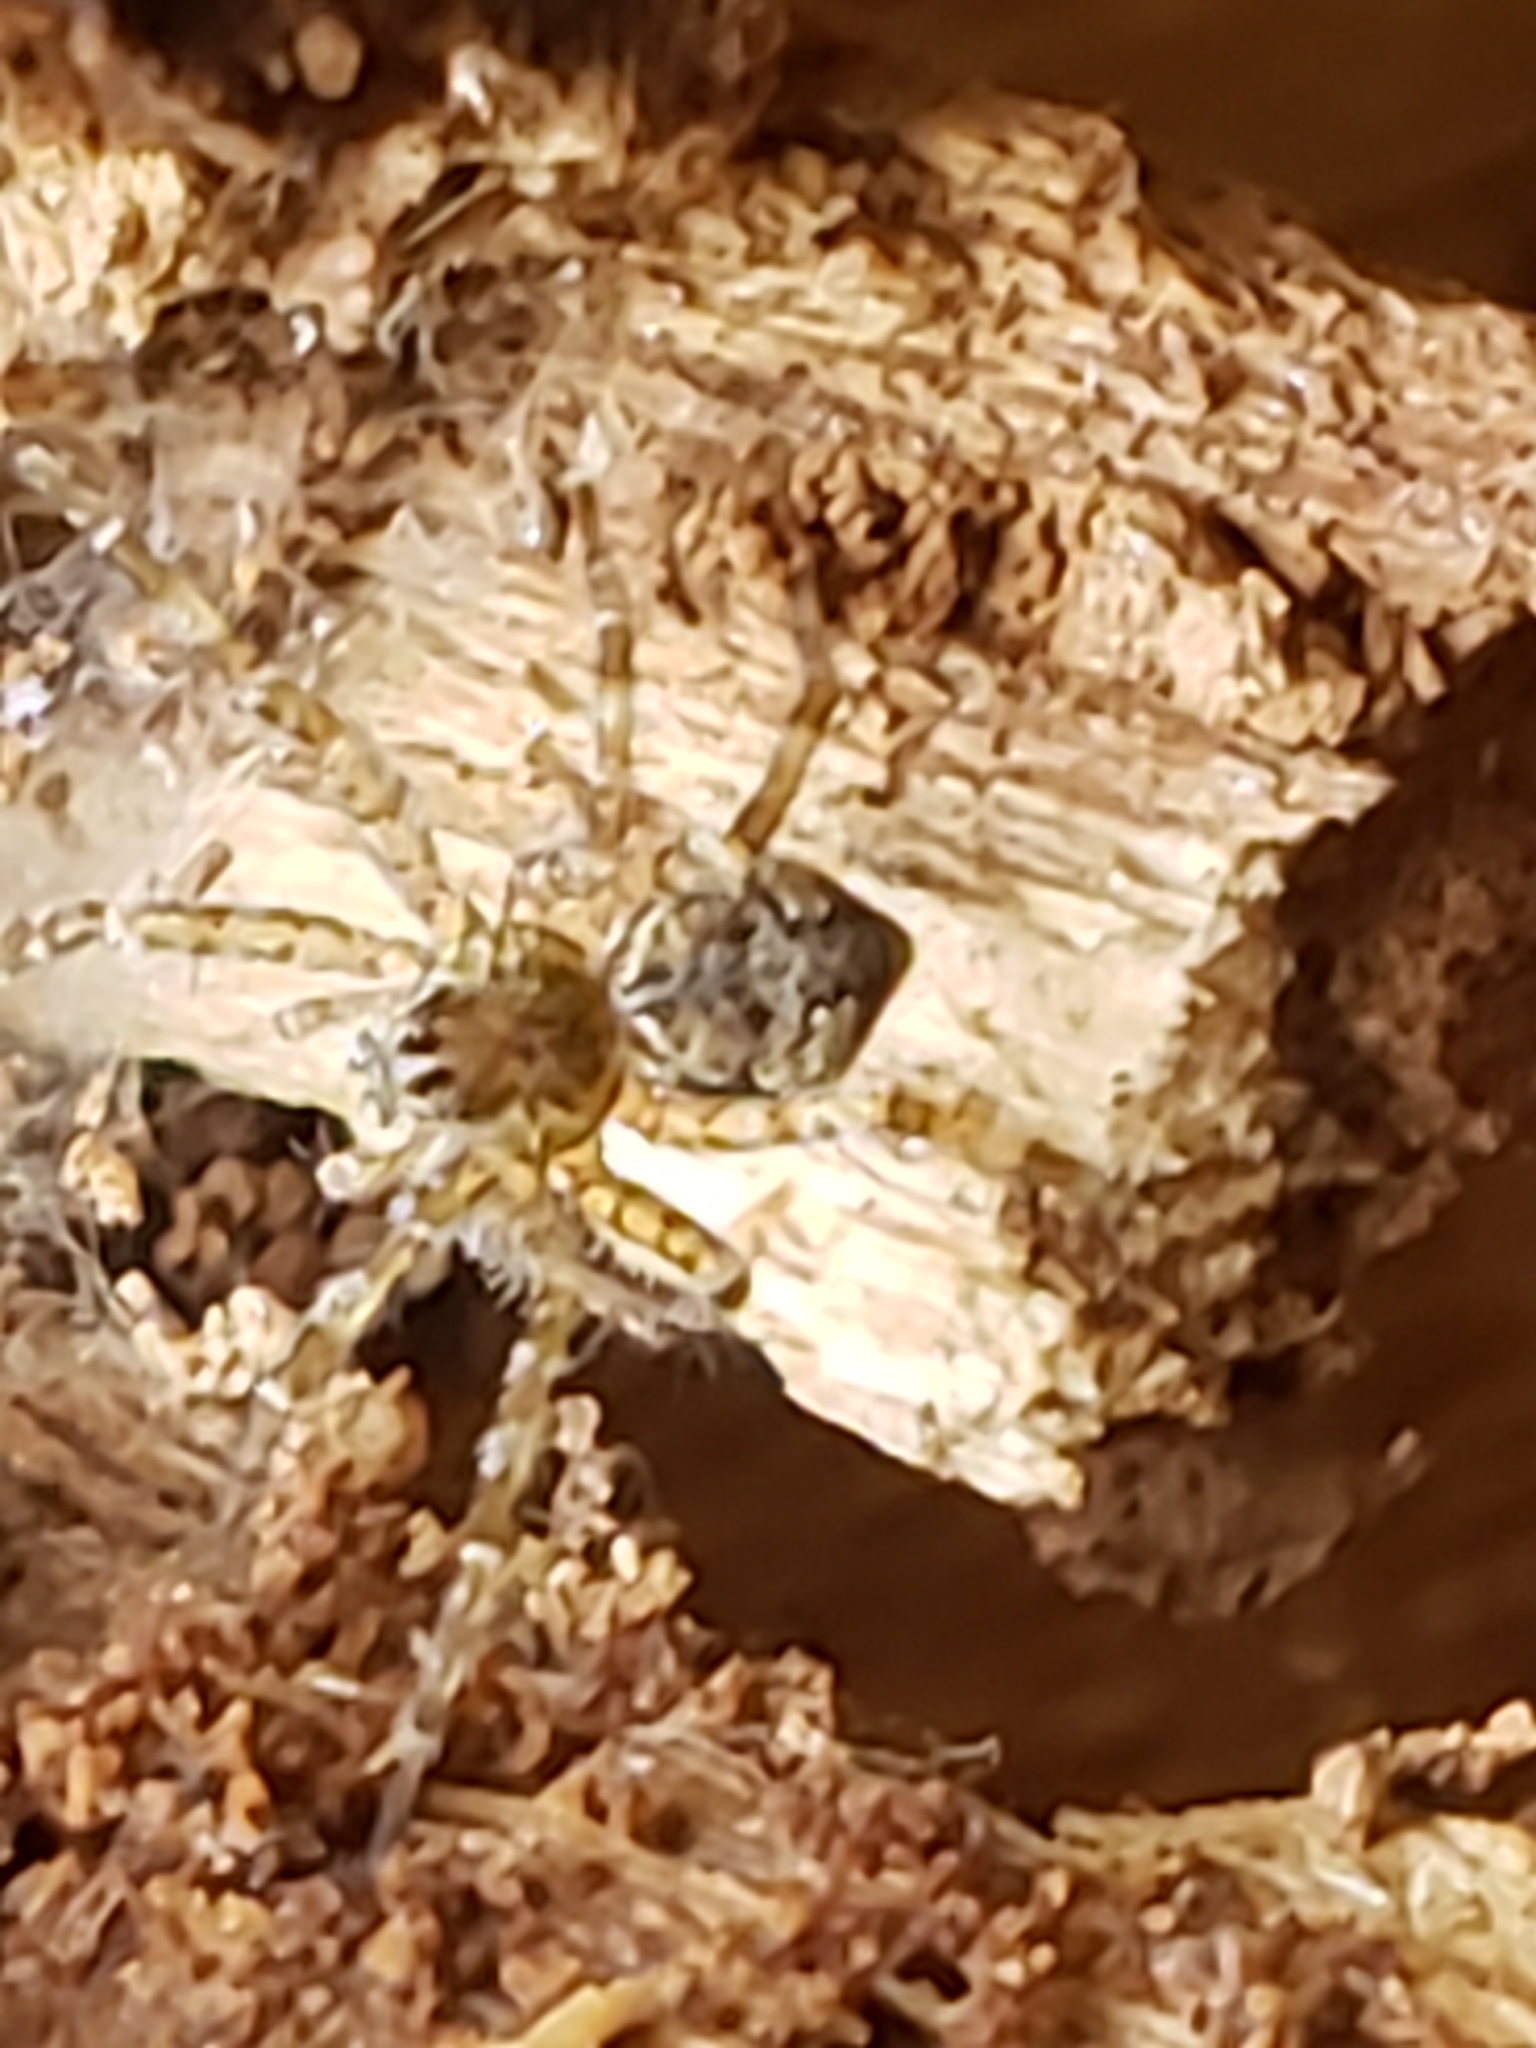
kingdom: Animalia
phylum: Arthropoda
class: Arachnida
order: Araneae
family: Pisauridae
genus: Dolomedes
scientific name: Dolomedes albineus
